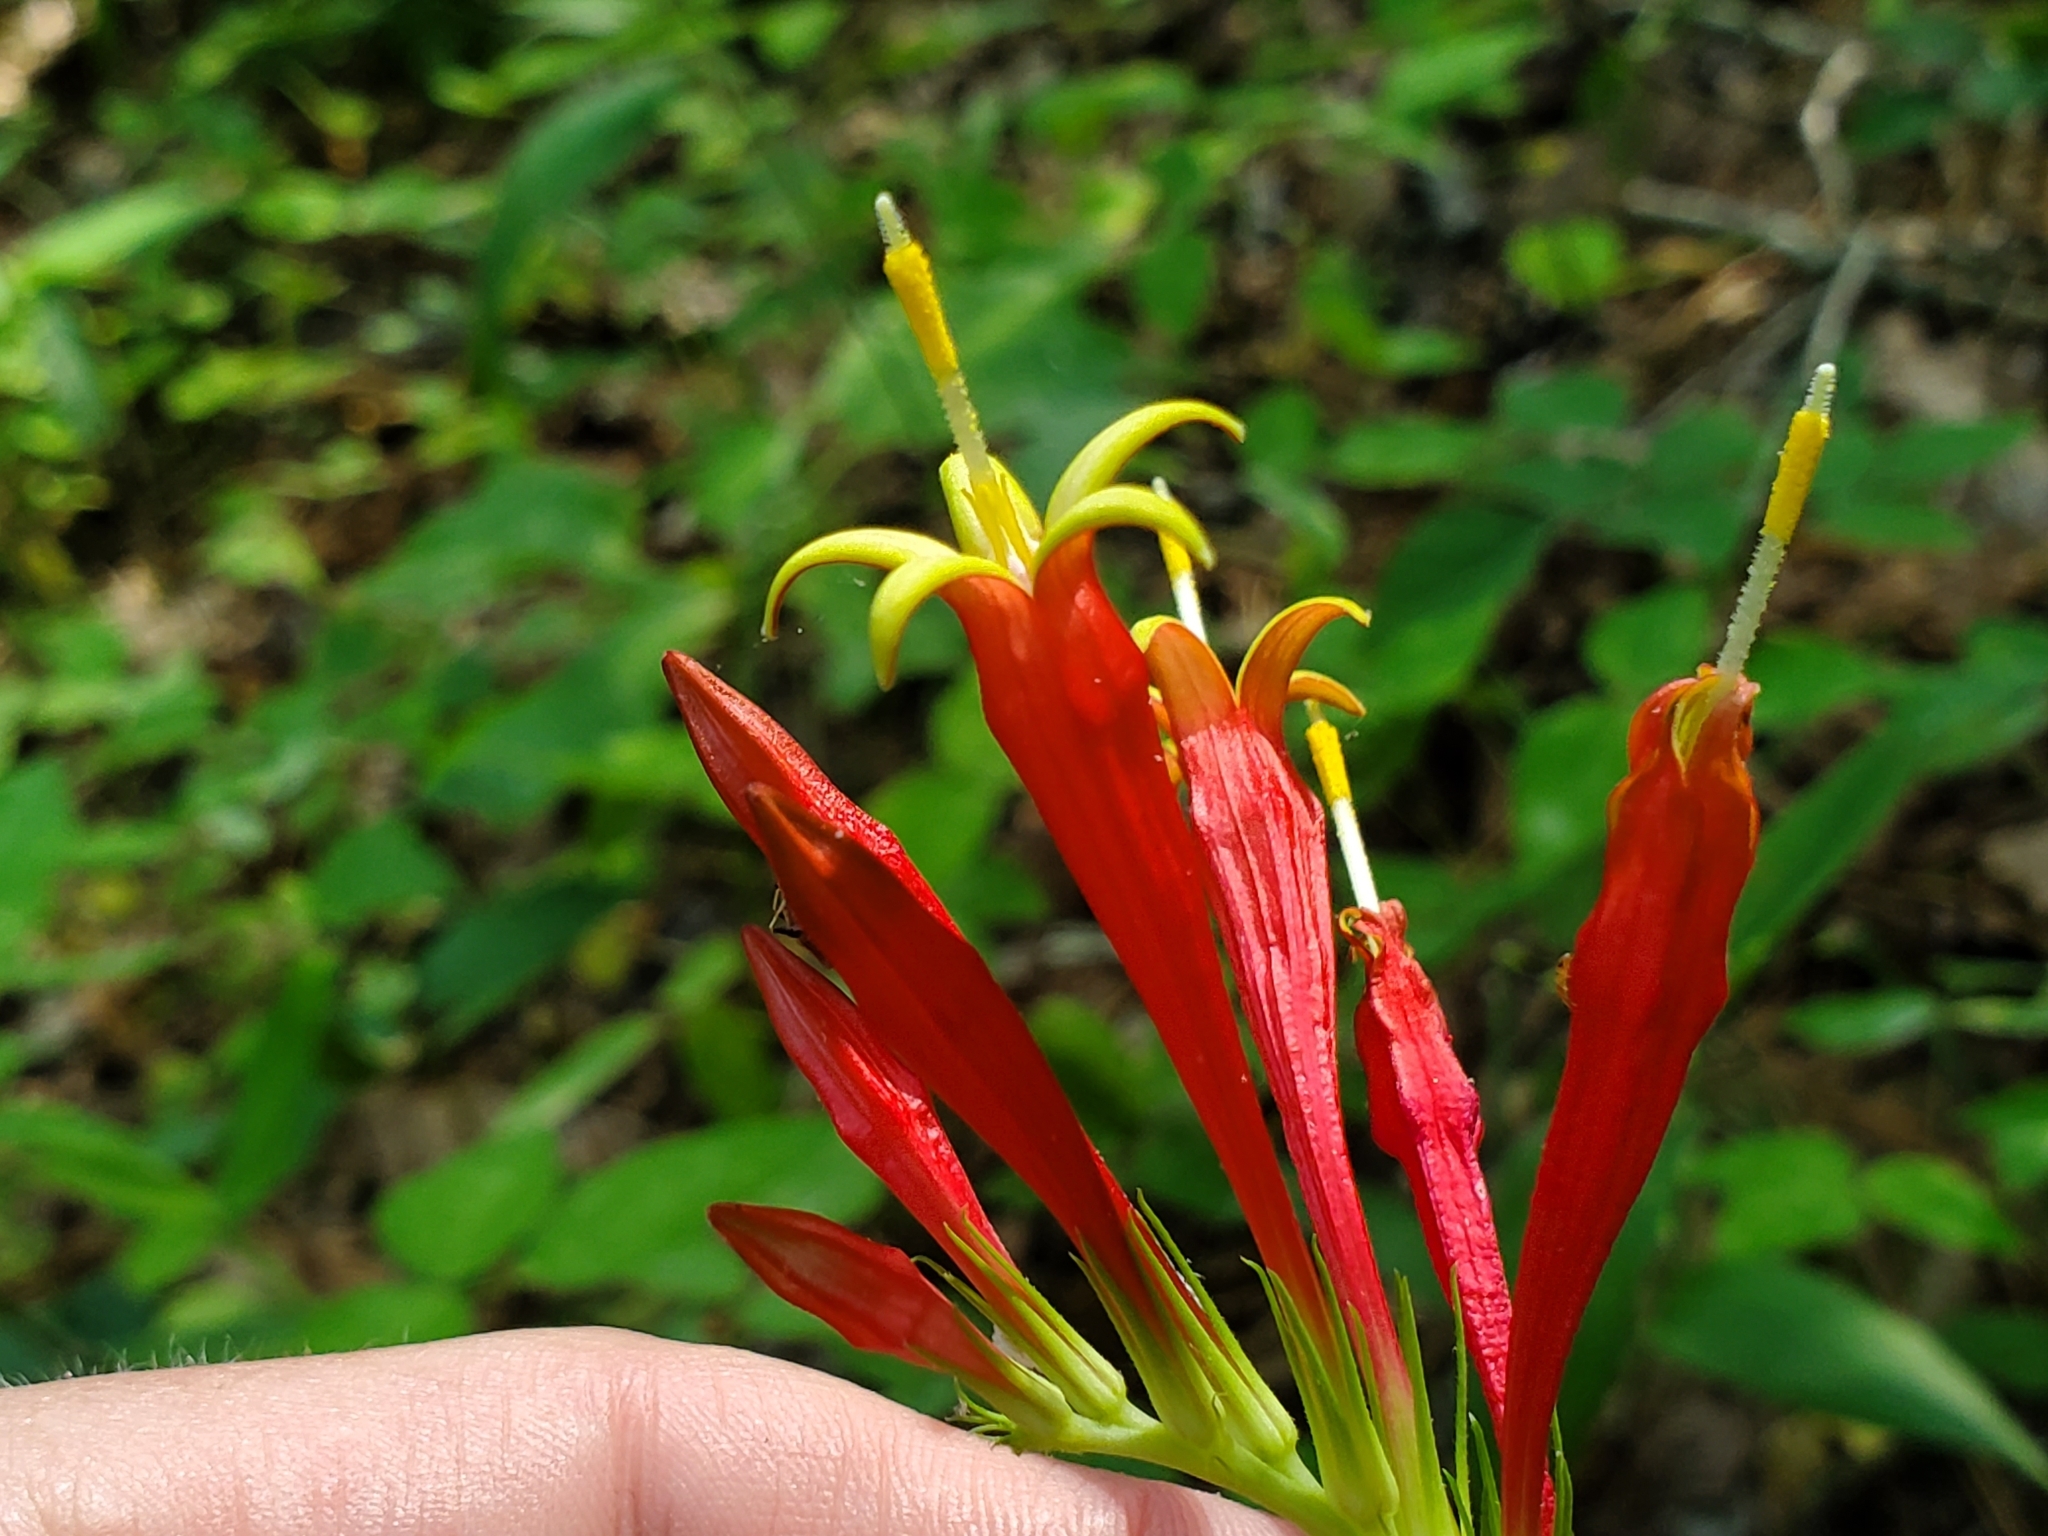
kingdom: Plantae
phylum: Tracheophyta
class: Magnoliopsida
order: Gentianales
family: Loganiaceae
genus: Spigelia
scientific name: Spigelia marilandica
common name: Indian-pink
